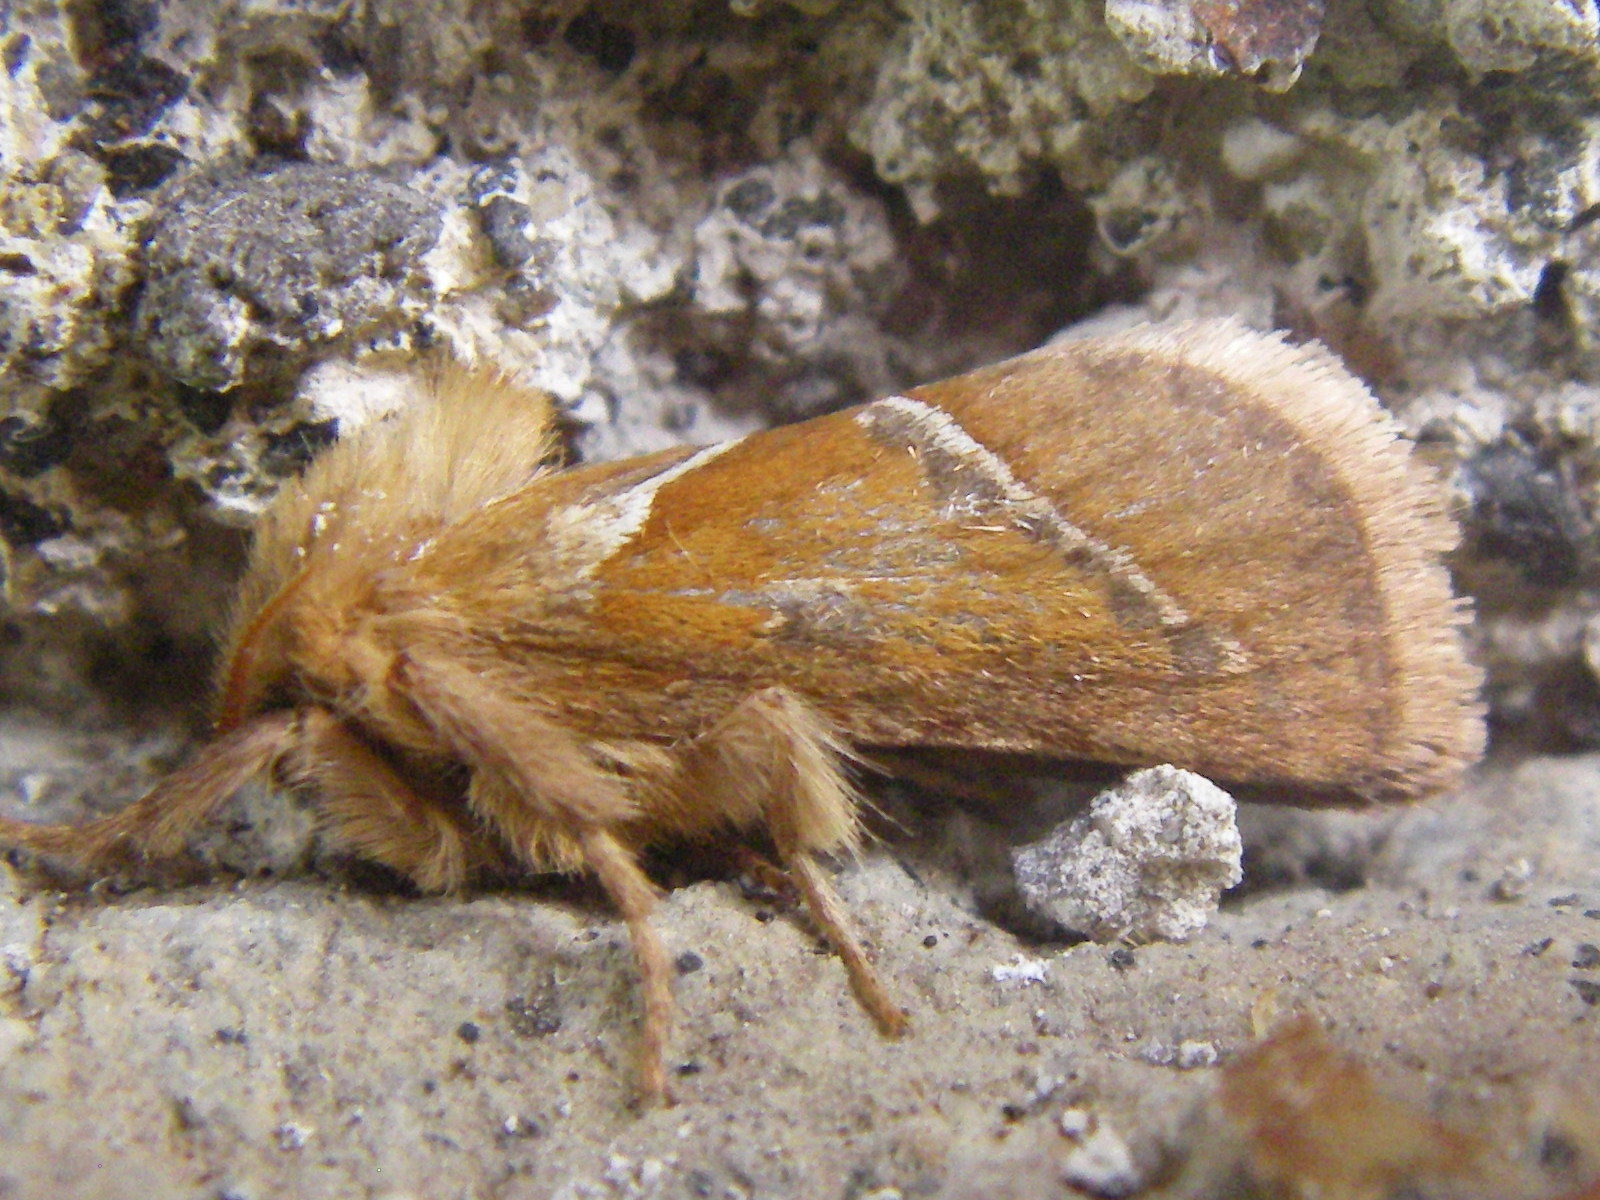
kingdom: Animalia
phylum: Arthropoda
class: Insecta
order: Lepidoptera
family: Hepialidae
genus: Triodia
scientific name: Triodia sylvina
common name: Orange swift
